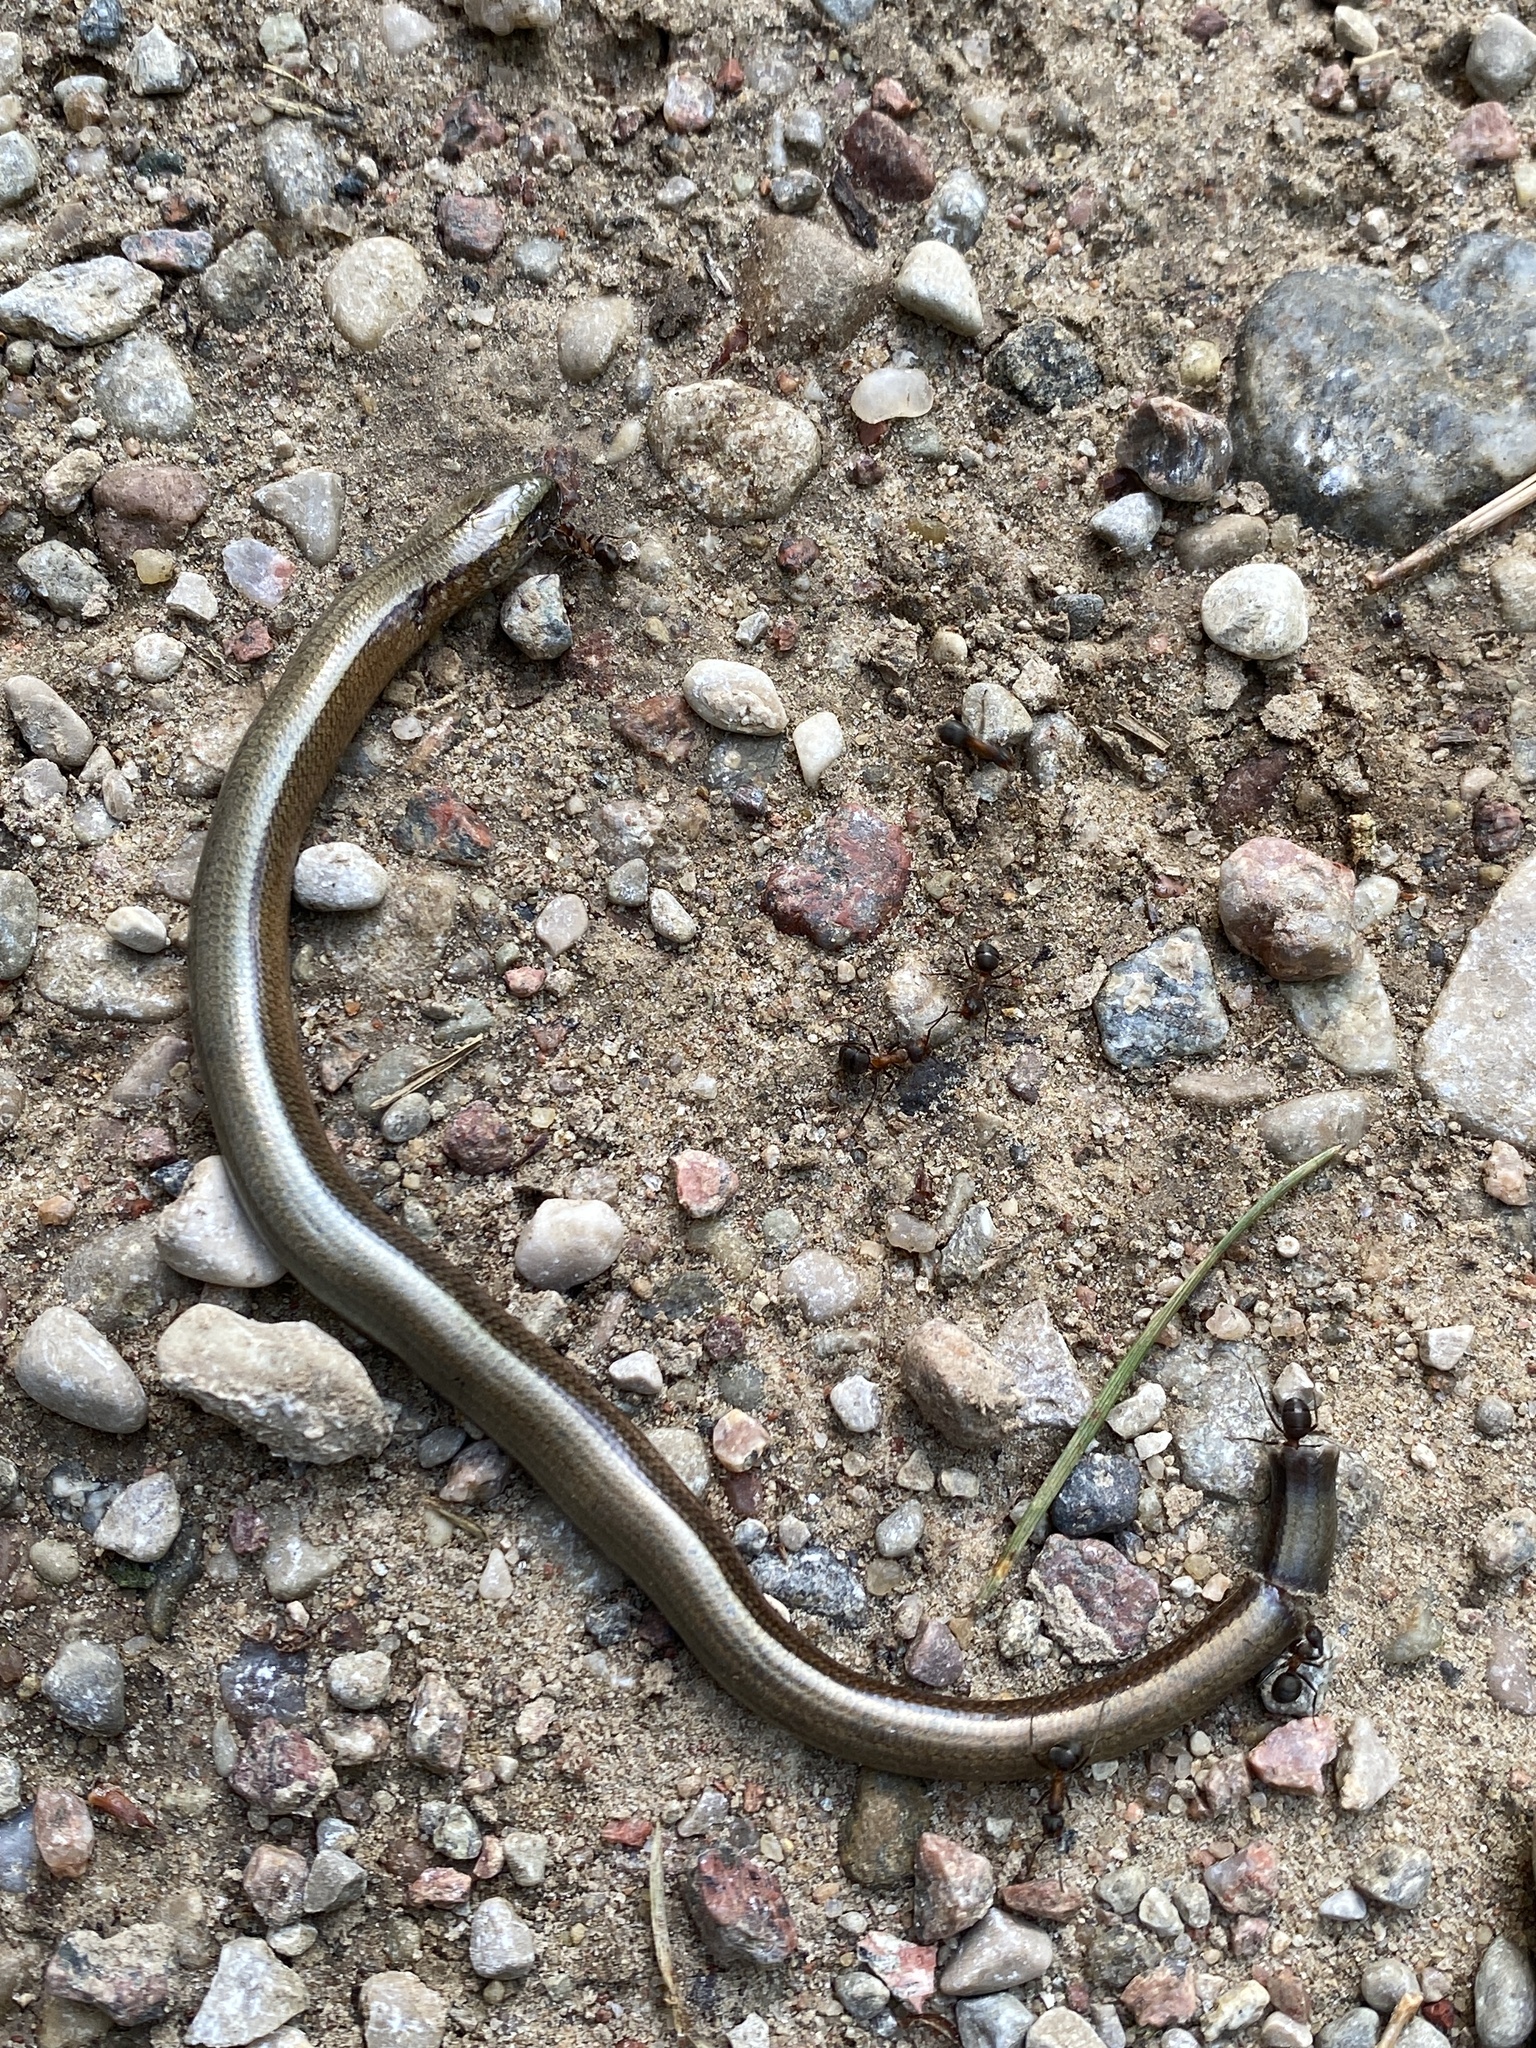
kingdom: Animalia
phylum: Chordata
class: Squamata
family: Anguidae
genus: Anguis
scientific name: Anguis fragilis
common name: Slow worm
